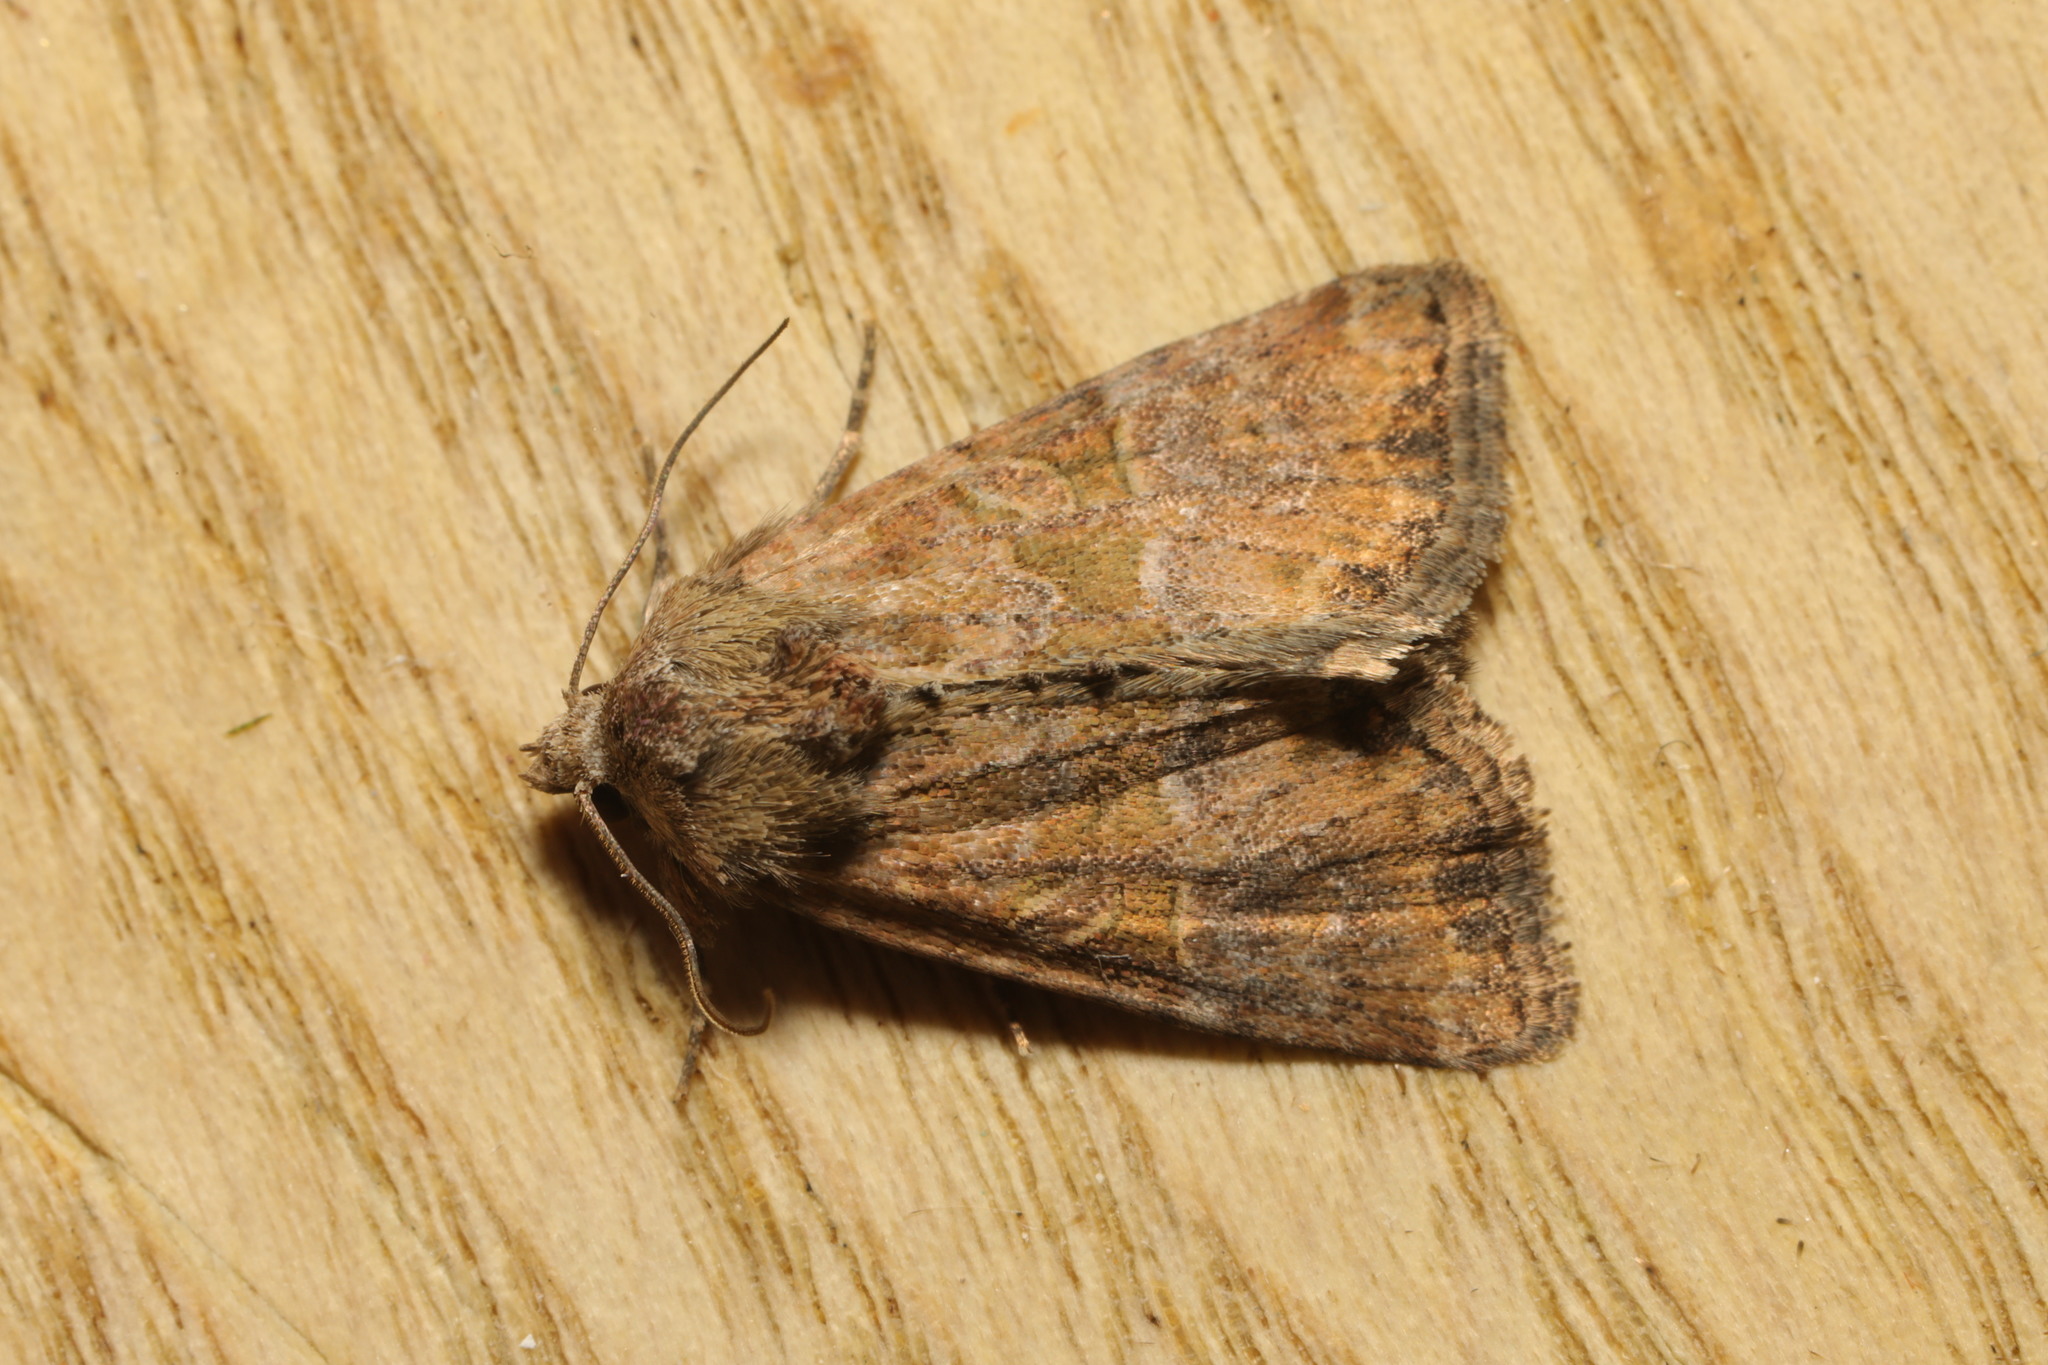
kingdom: Animalia
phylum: Arthropoda
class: Insecta
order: Lepidoptera
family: Noctuidae
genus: Mesoligia
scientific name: Mesoligia furuncula
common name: Cloaked minor
